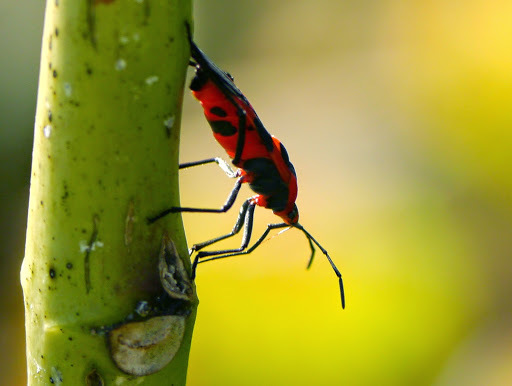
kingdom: Animalia
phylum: Arthropoda
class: Insecta
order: Hemiptera
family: Lygaeidae
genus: Oncopeltus
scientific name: Oncopeltus fasciatus
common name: Large milkweed bug
